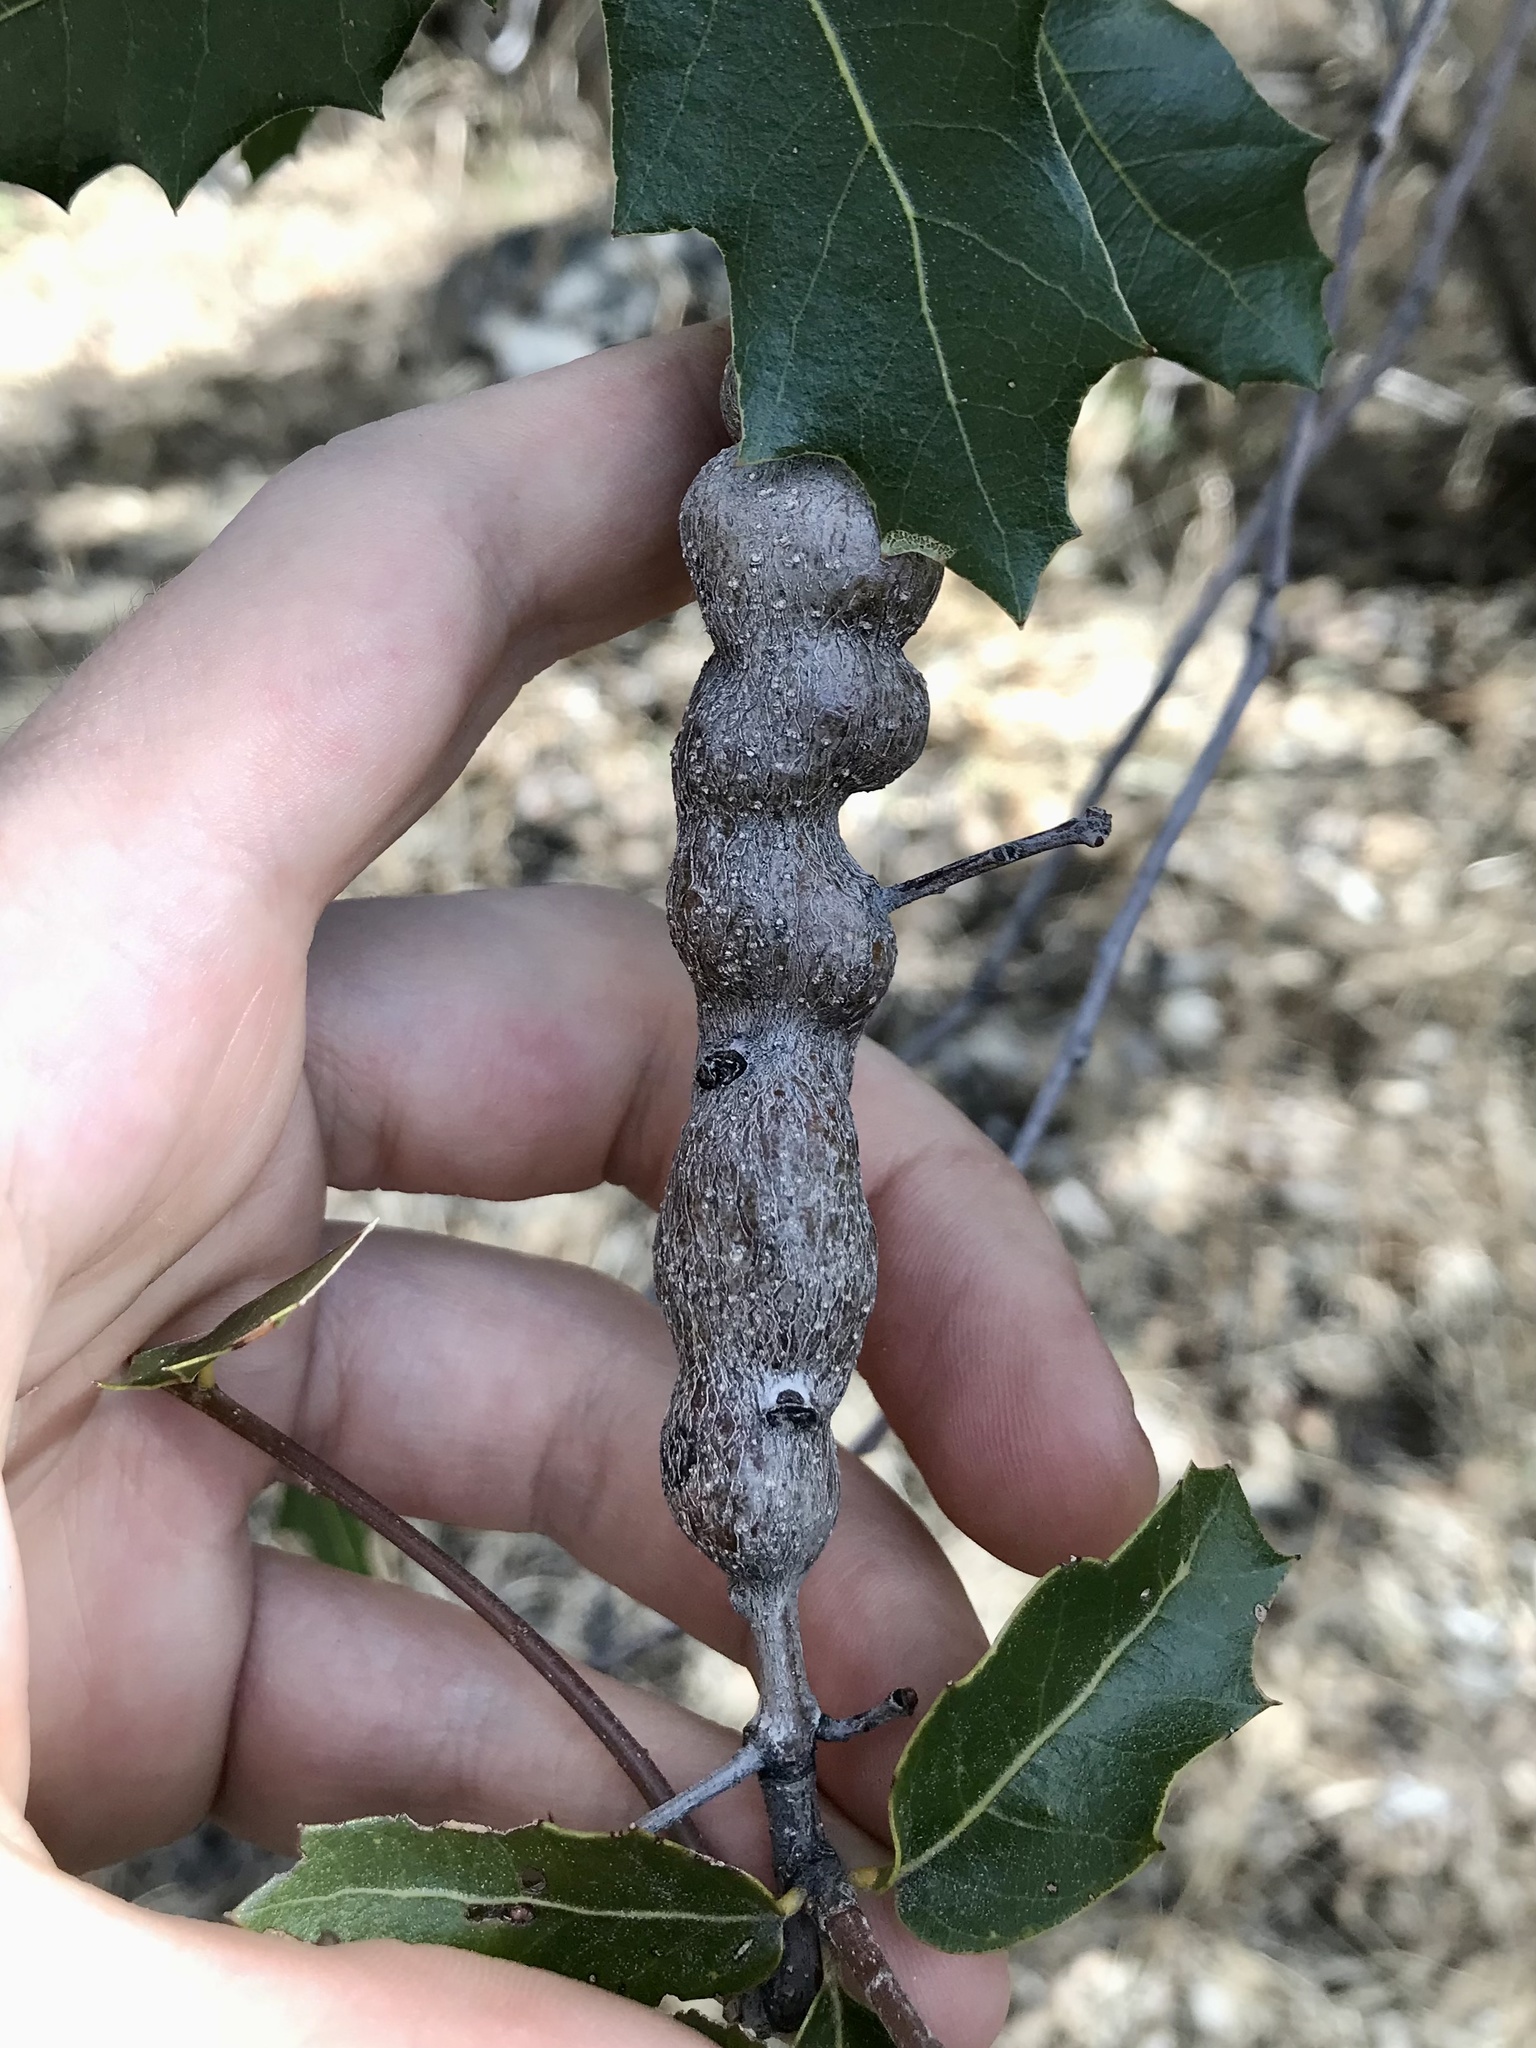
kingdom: Animalia
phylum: Arthropoda
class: Insecta
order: Hymenoptera
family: Cynipidae
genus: Kokkocynips
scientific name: Kokkocynips coxii
